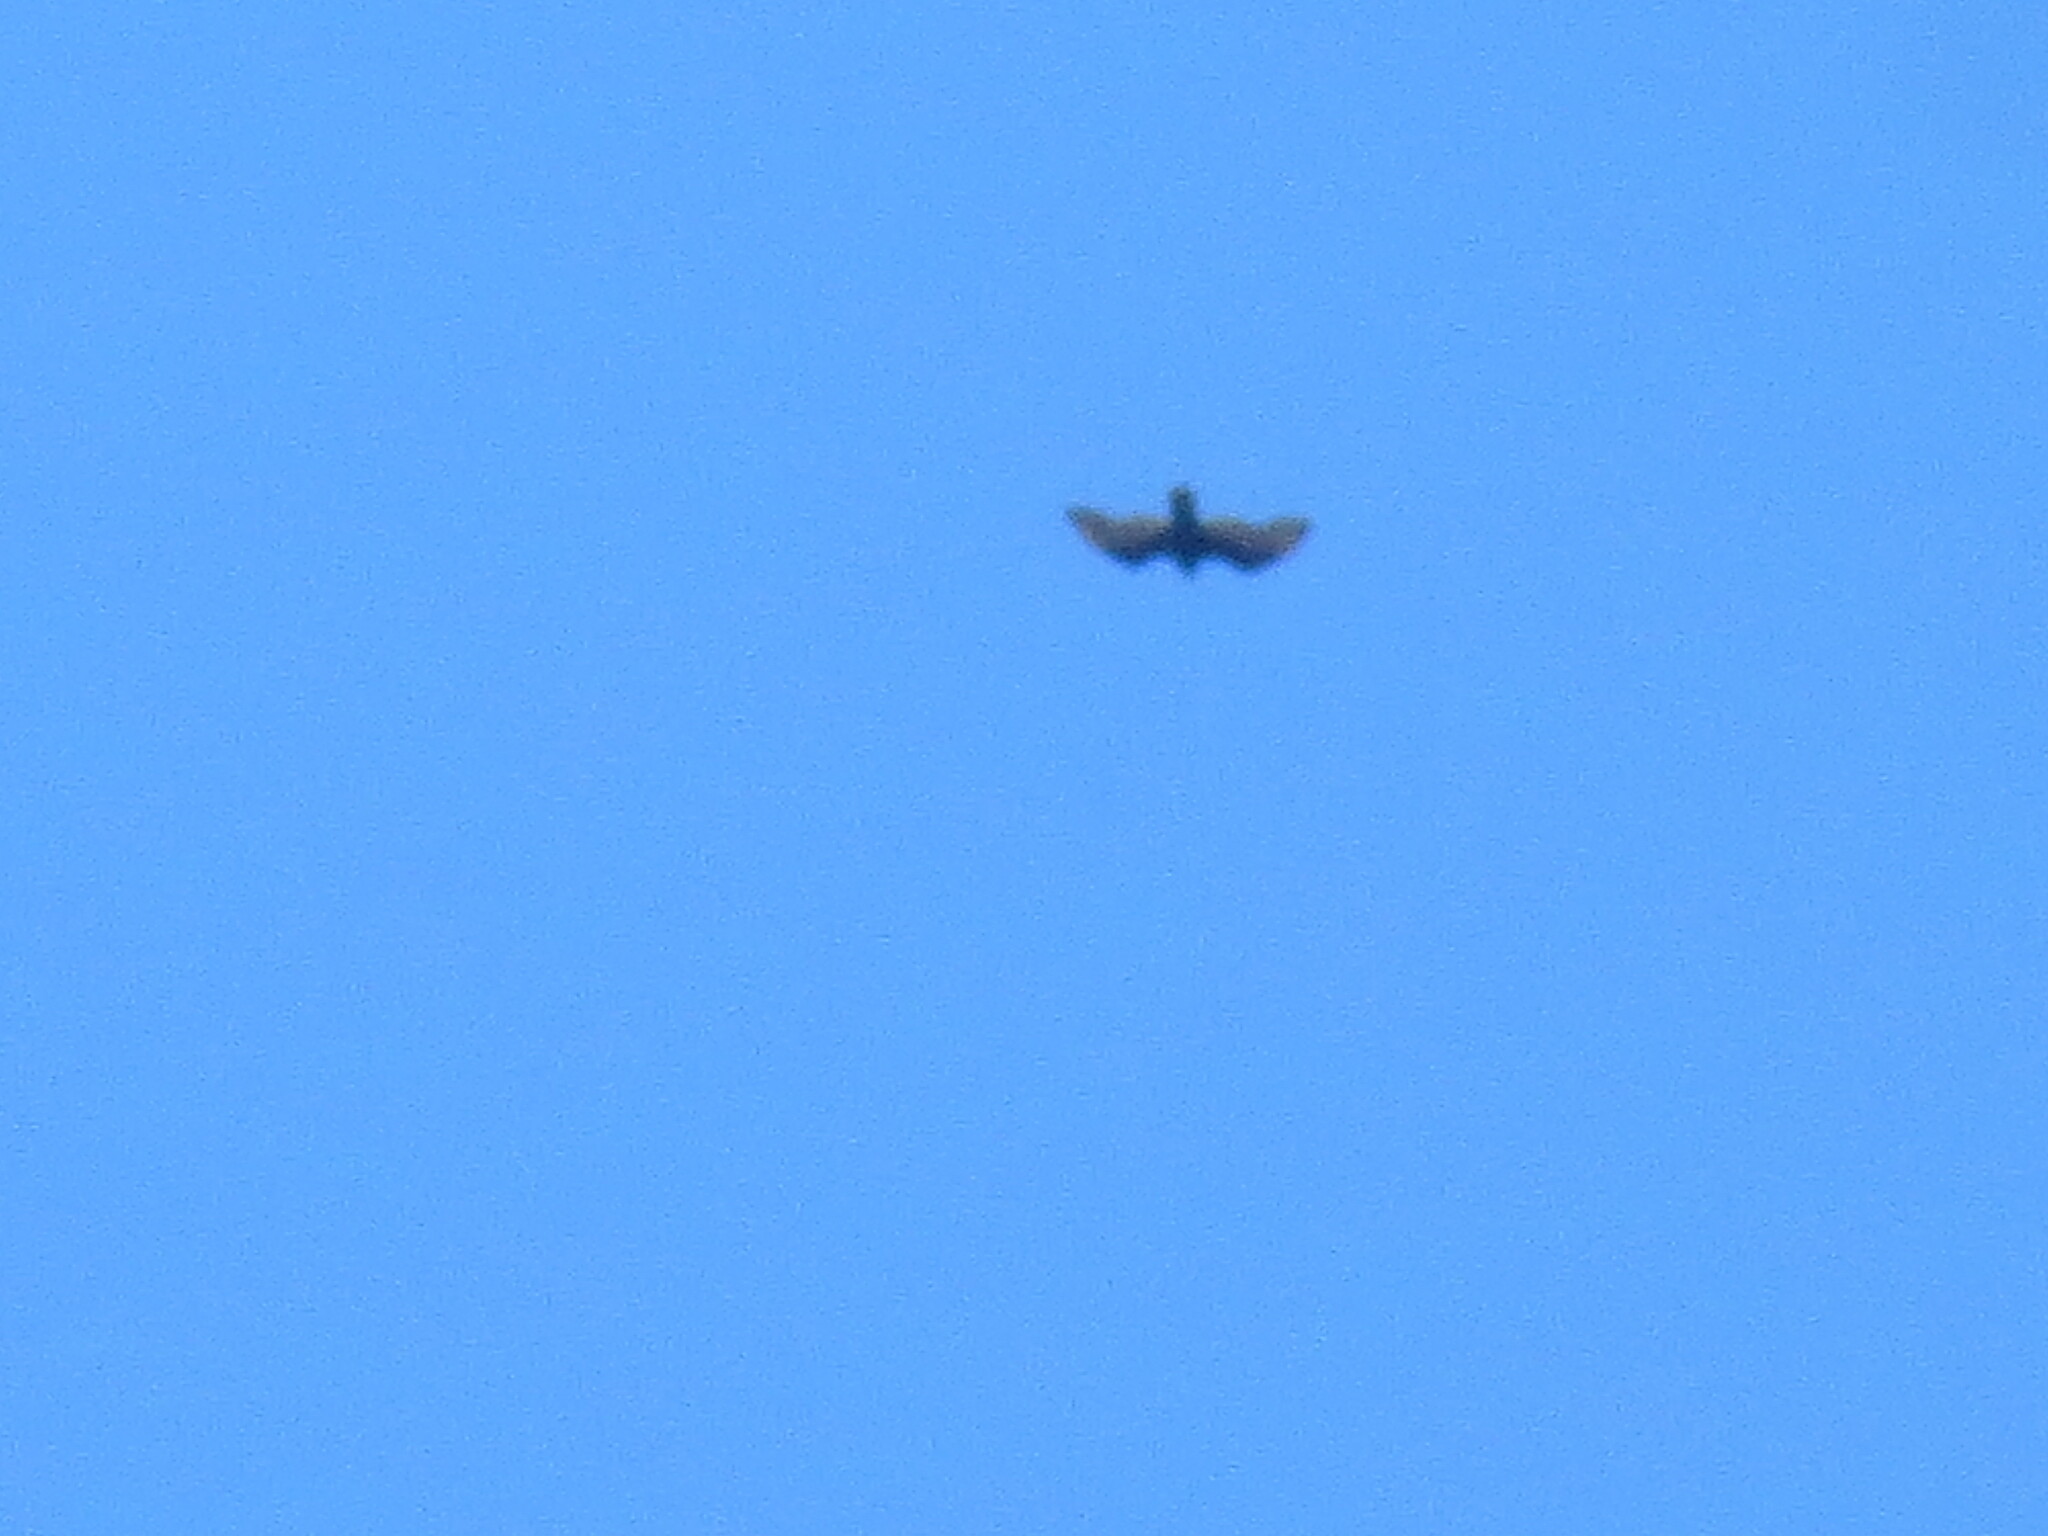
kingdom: Animalia
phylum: Chordata
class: Aves
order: Accipitriformes
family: Cathartidae
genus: Cathartes
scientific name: Cathartes aura
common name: Turkey vulture
